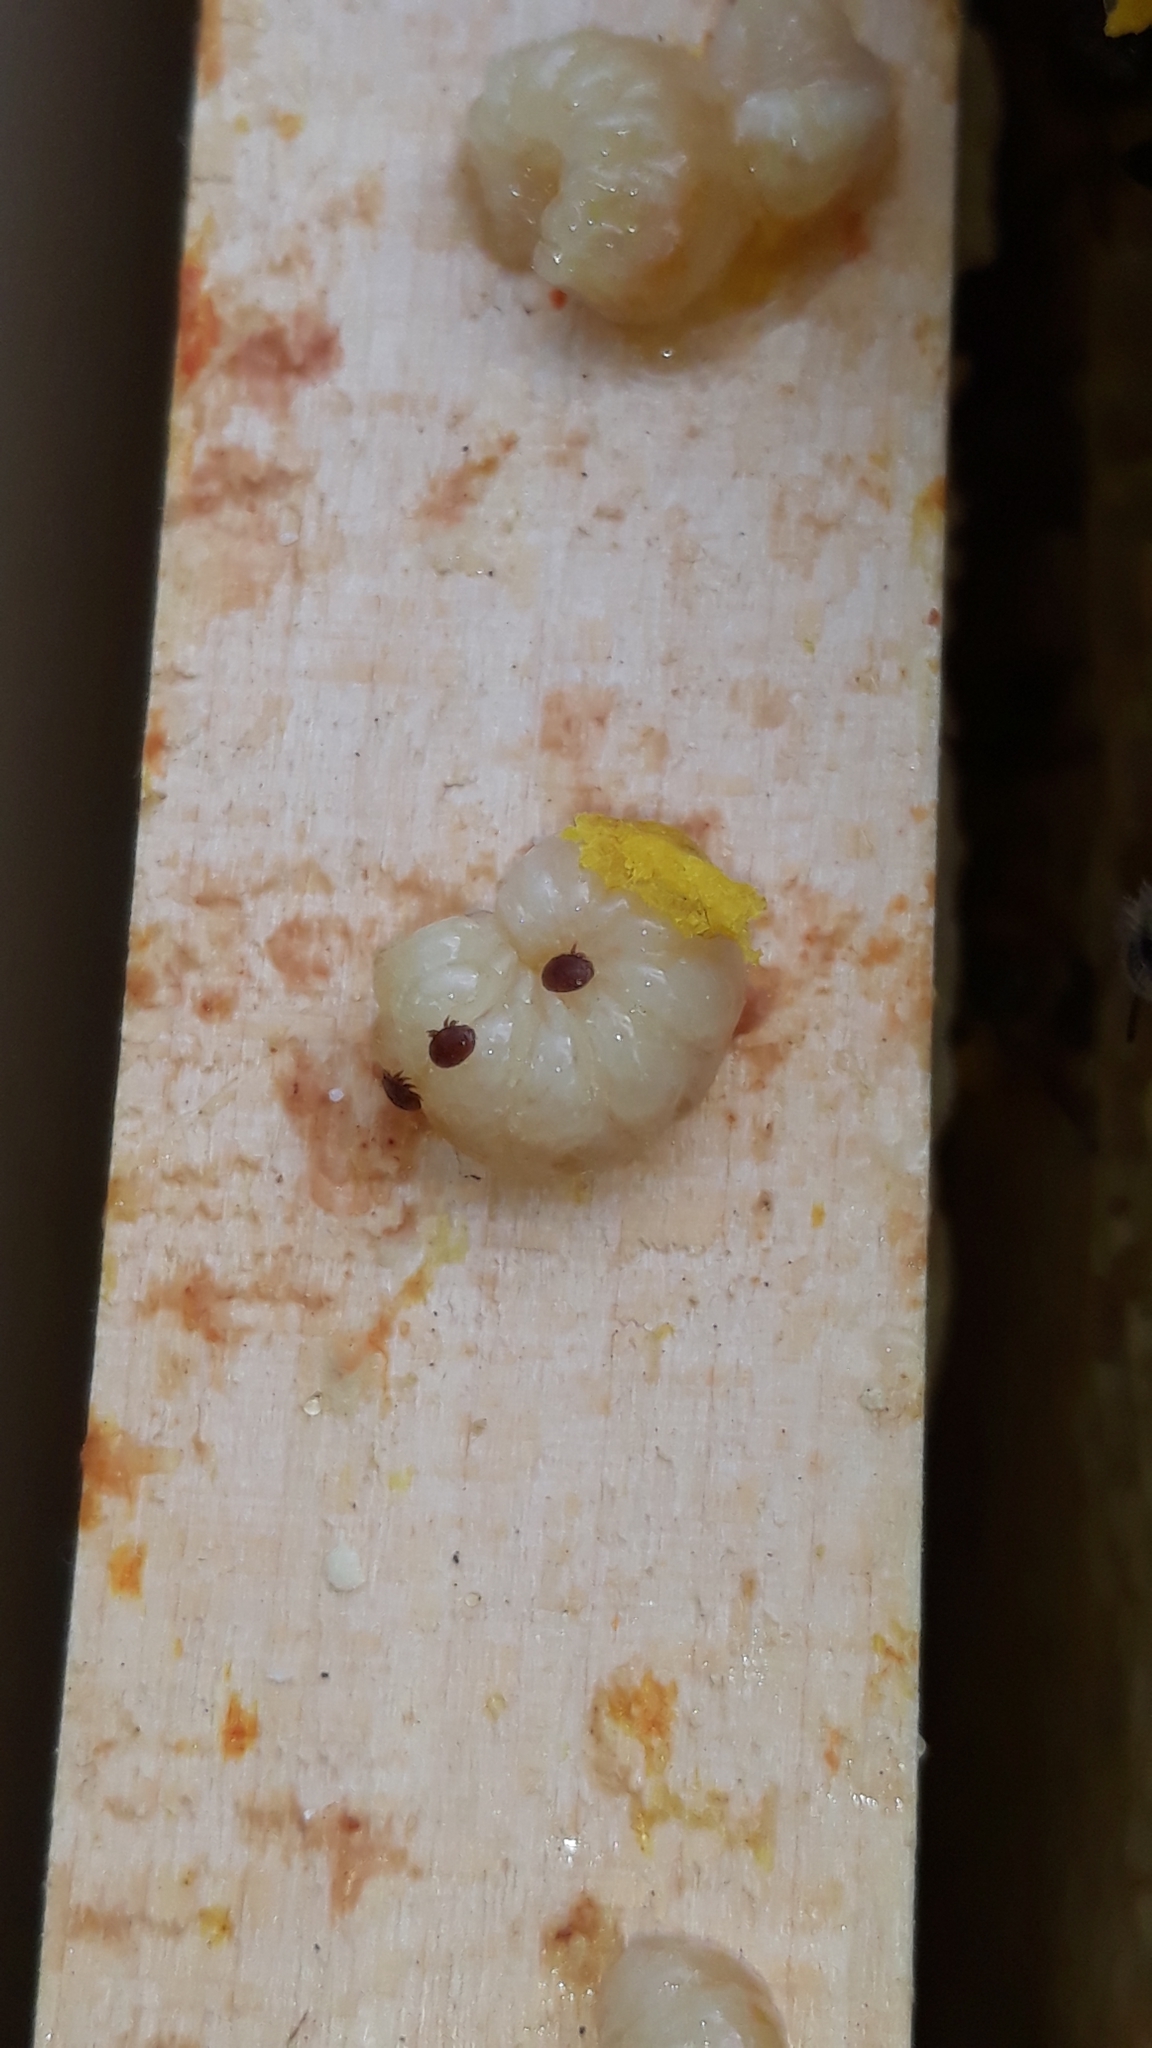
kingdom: Animalia
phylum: Arthropoda
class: Arachnida
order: Mesostigmata
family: Varroidae
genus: Varroa
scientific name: Varroa destructor
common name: Honey bee mite
